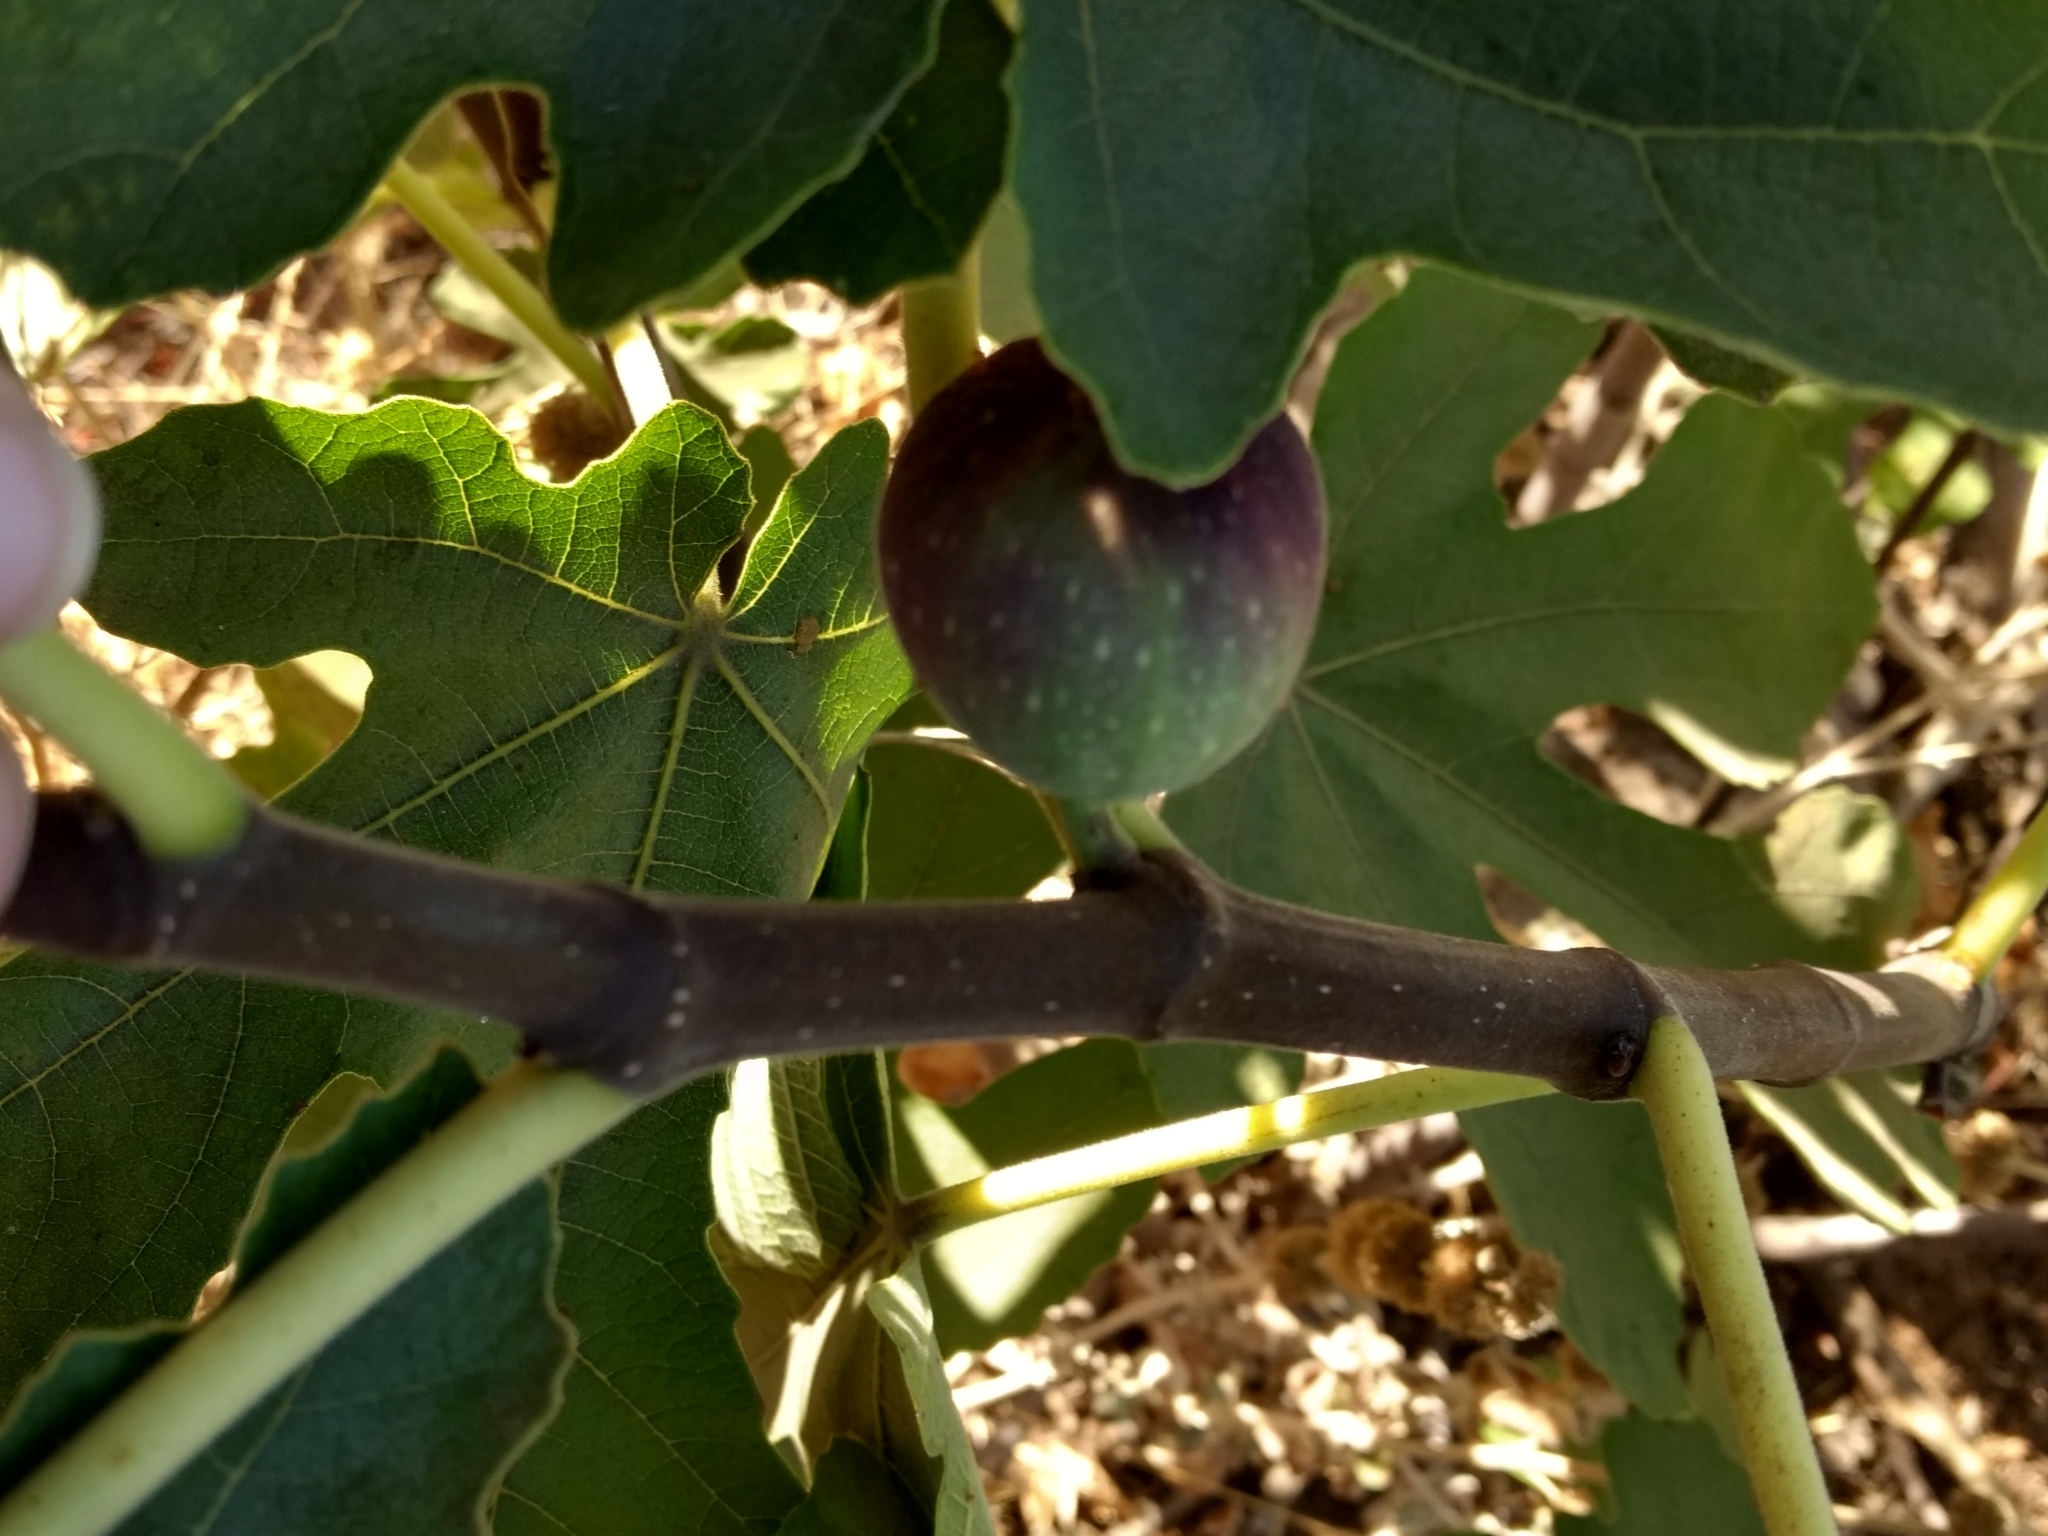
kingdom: Plantae
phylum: Tracheophyta
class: Magnoliopsida
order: Rosales
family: Moraceae
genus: Ficus
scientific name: Ficus carica
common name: Fig
